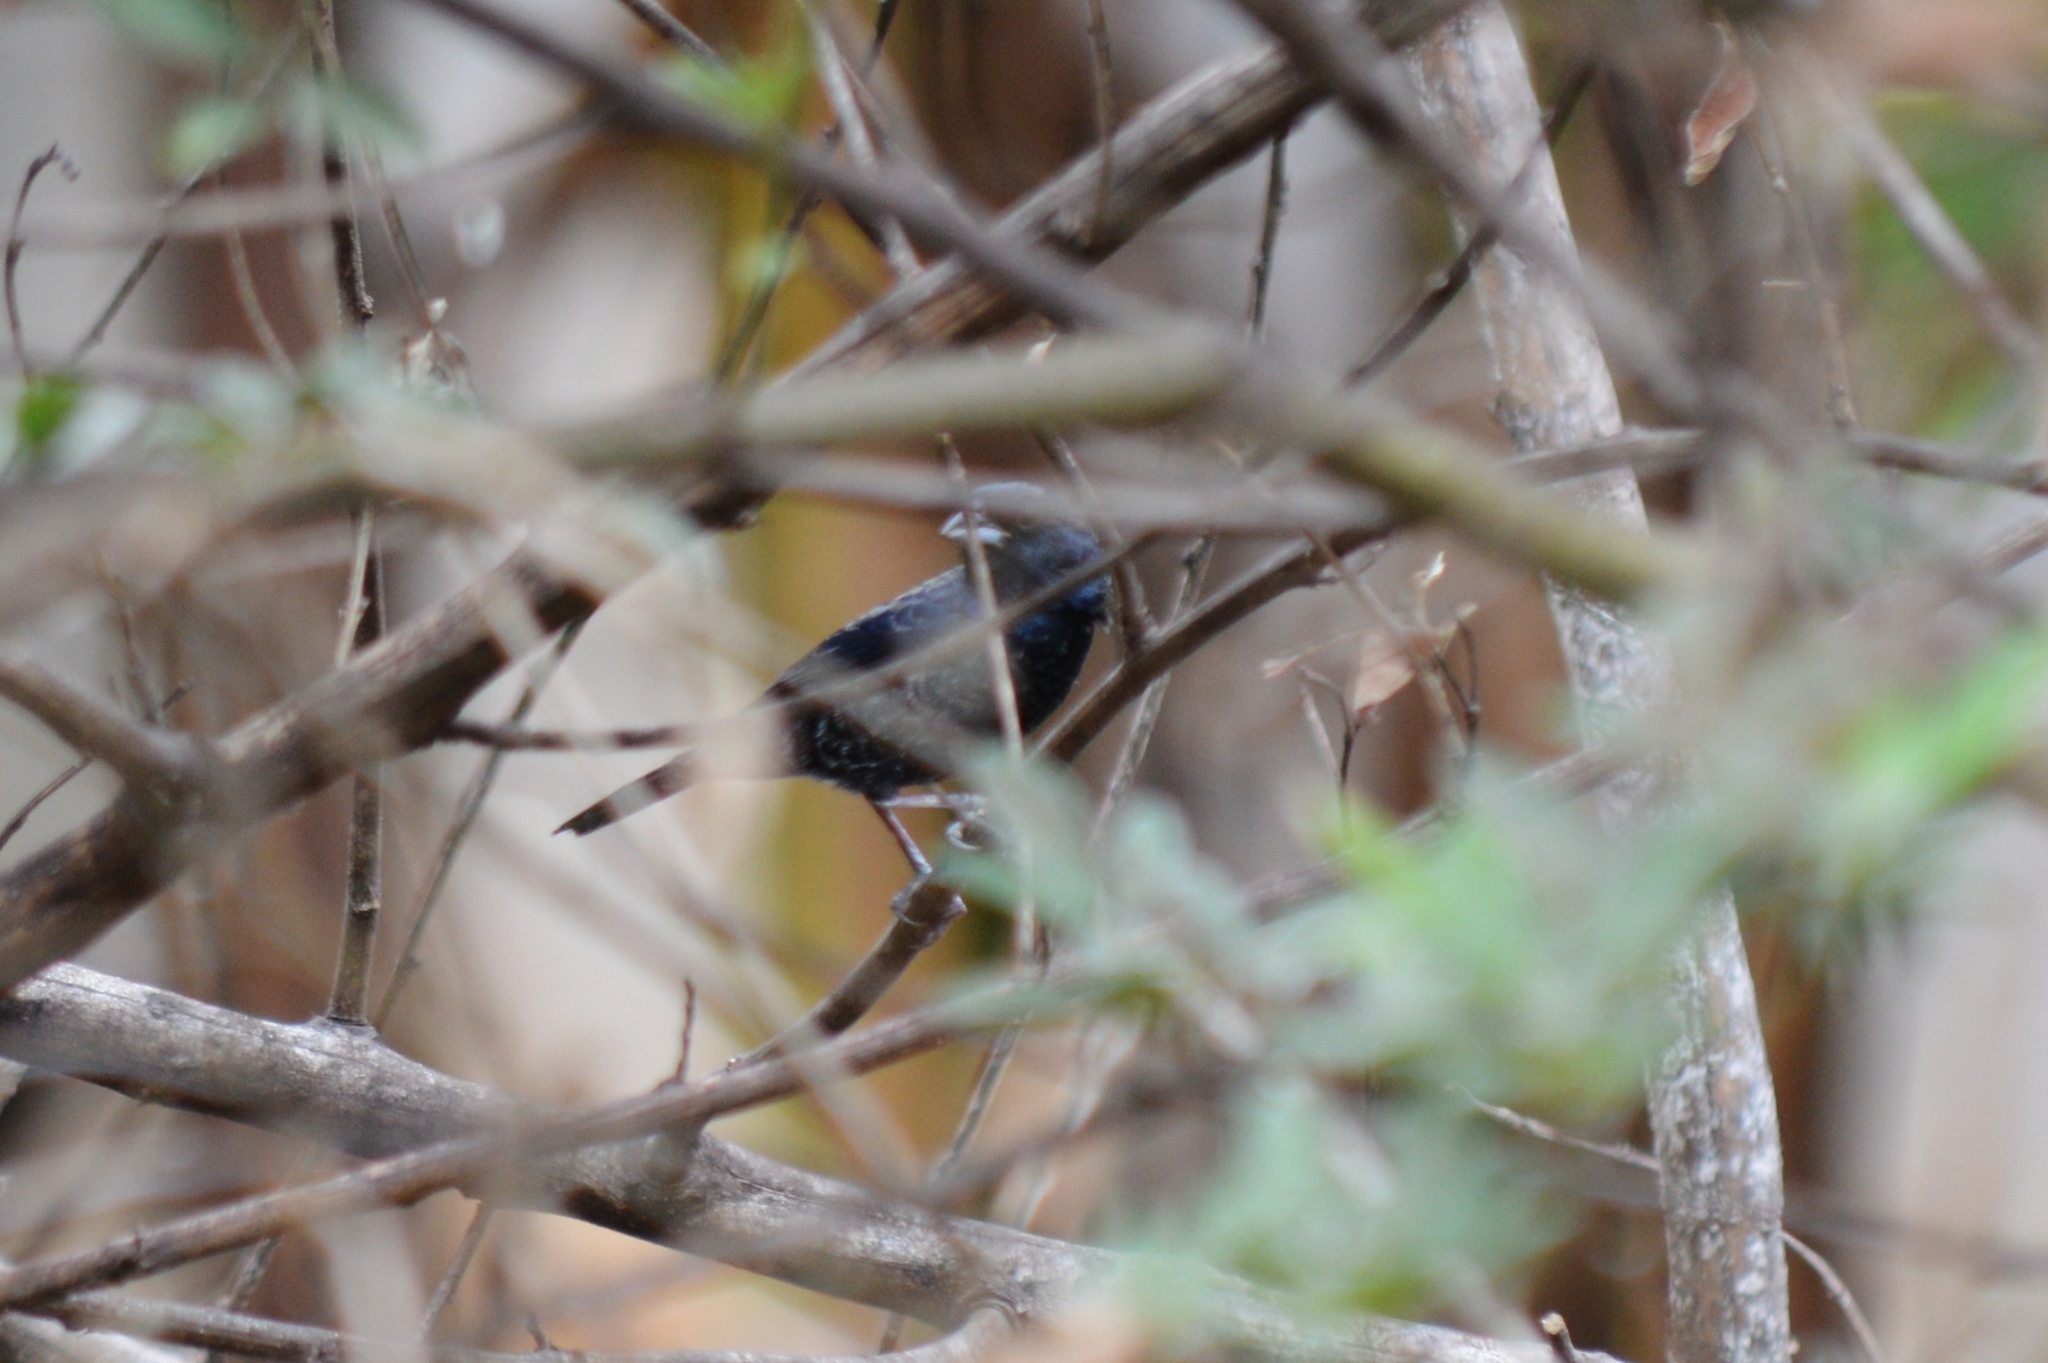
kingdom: Animalia
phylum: Chordata
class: Aves
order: Passeriformes
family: Thraupidae
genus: Volatinia
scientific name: Volatinia jacarina
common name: Blue-black grassquit
